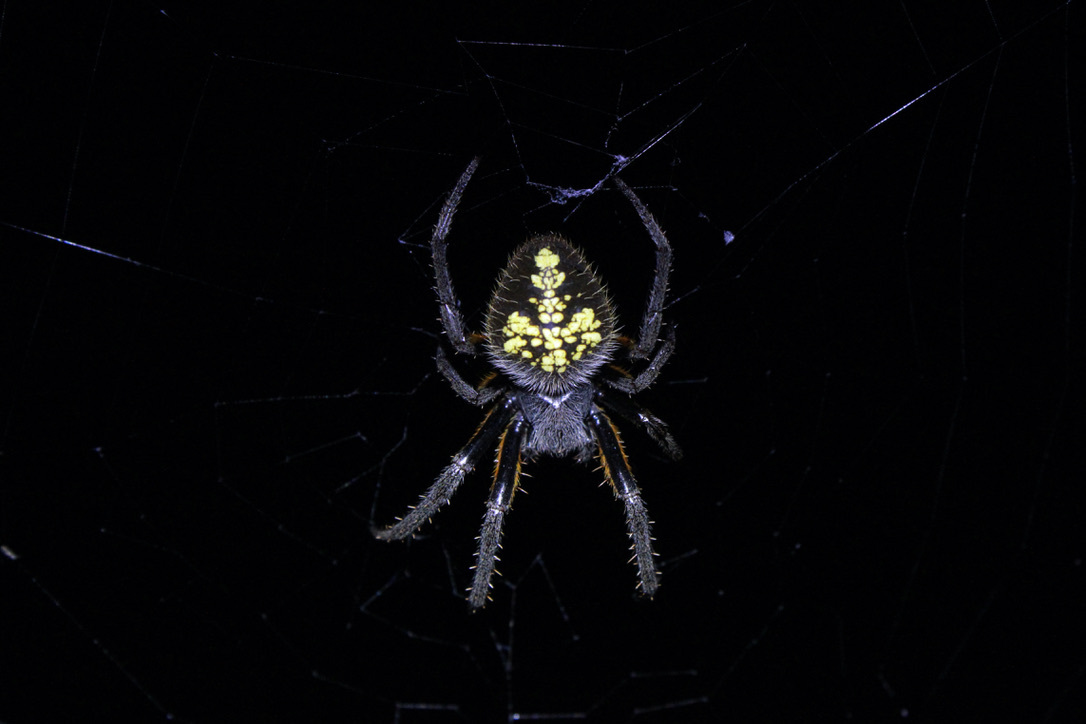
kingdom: Animalia
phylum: Arthropoda
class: Arachnida
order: Araneae
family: Araneidae
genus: Eriophora
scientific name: Eriophora fuliginea
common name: Orb weavers
